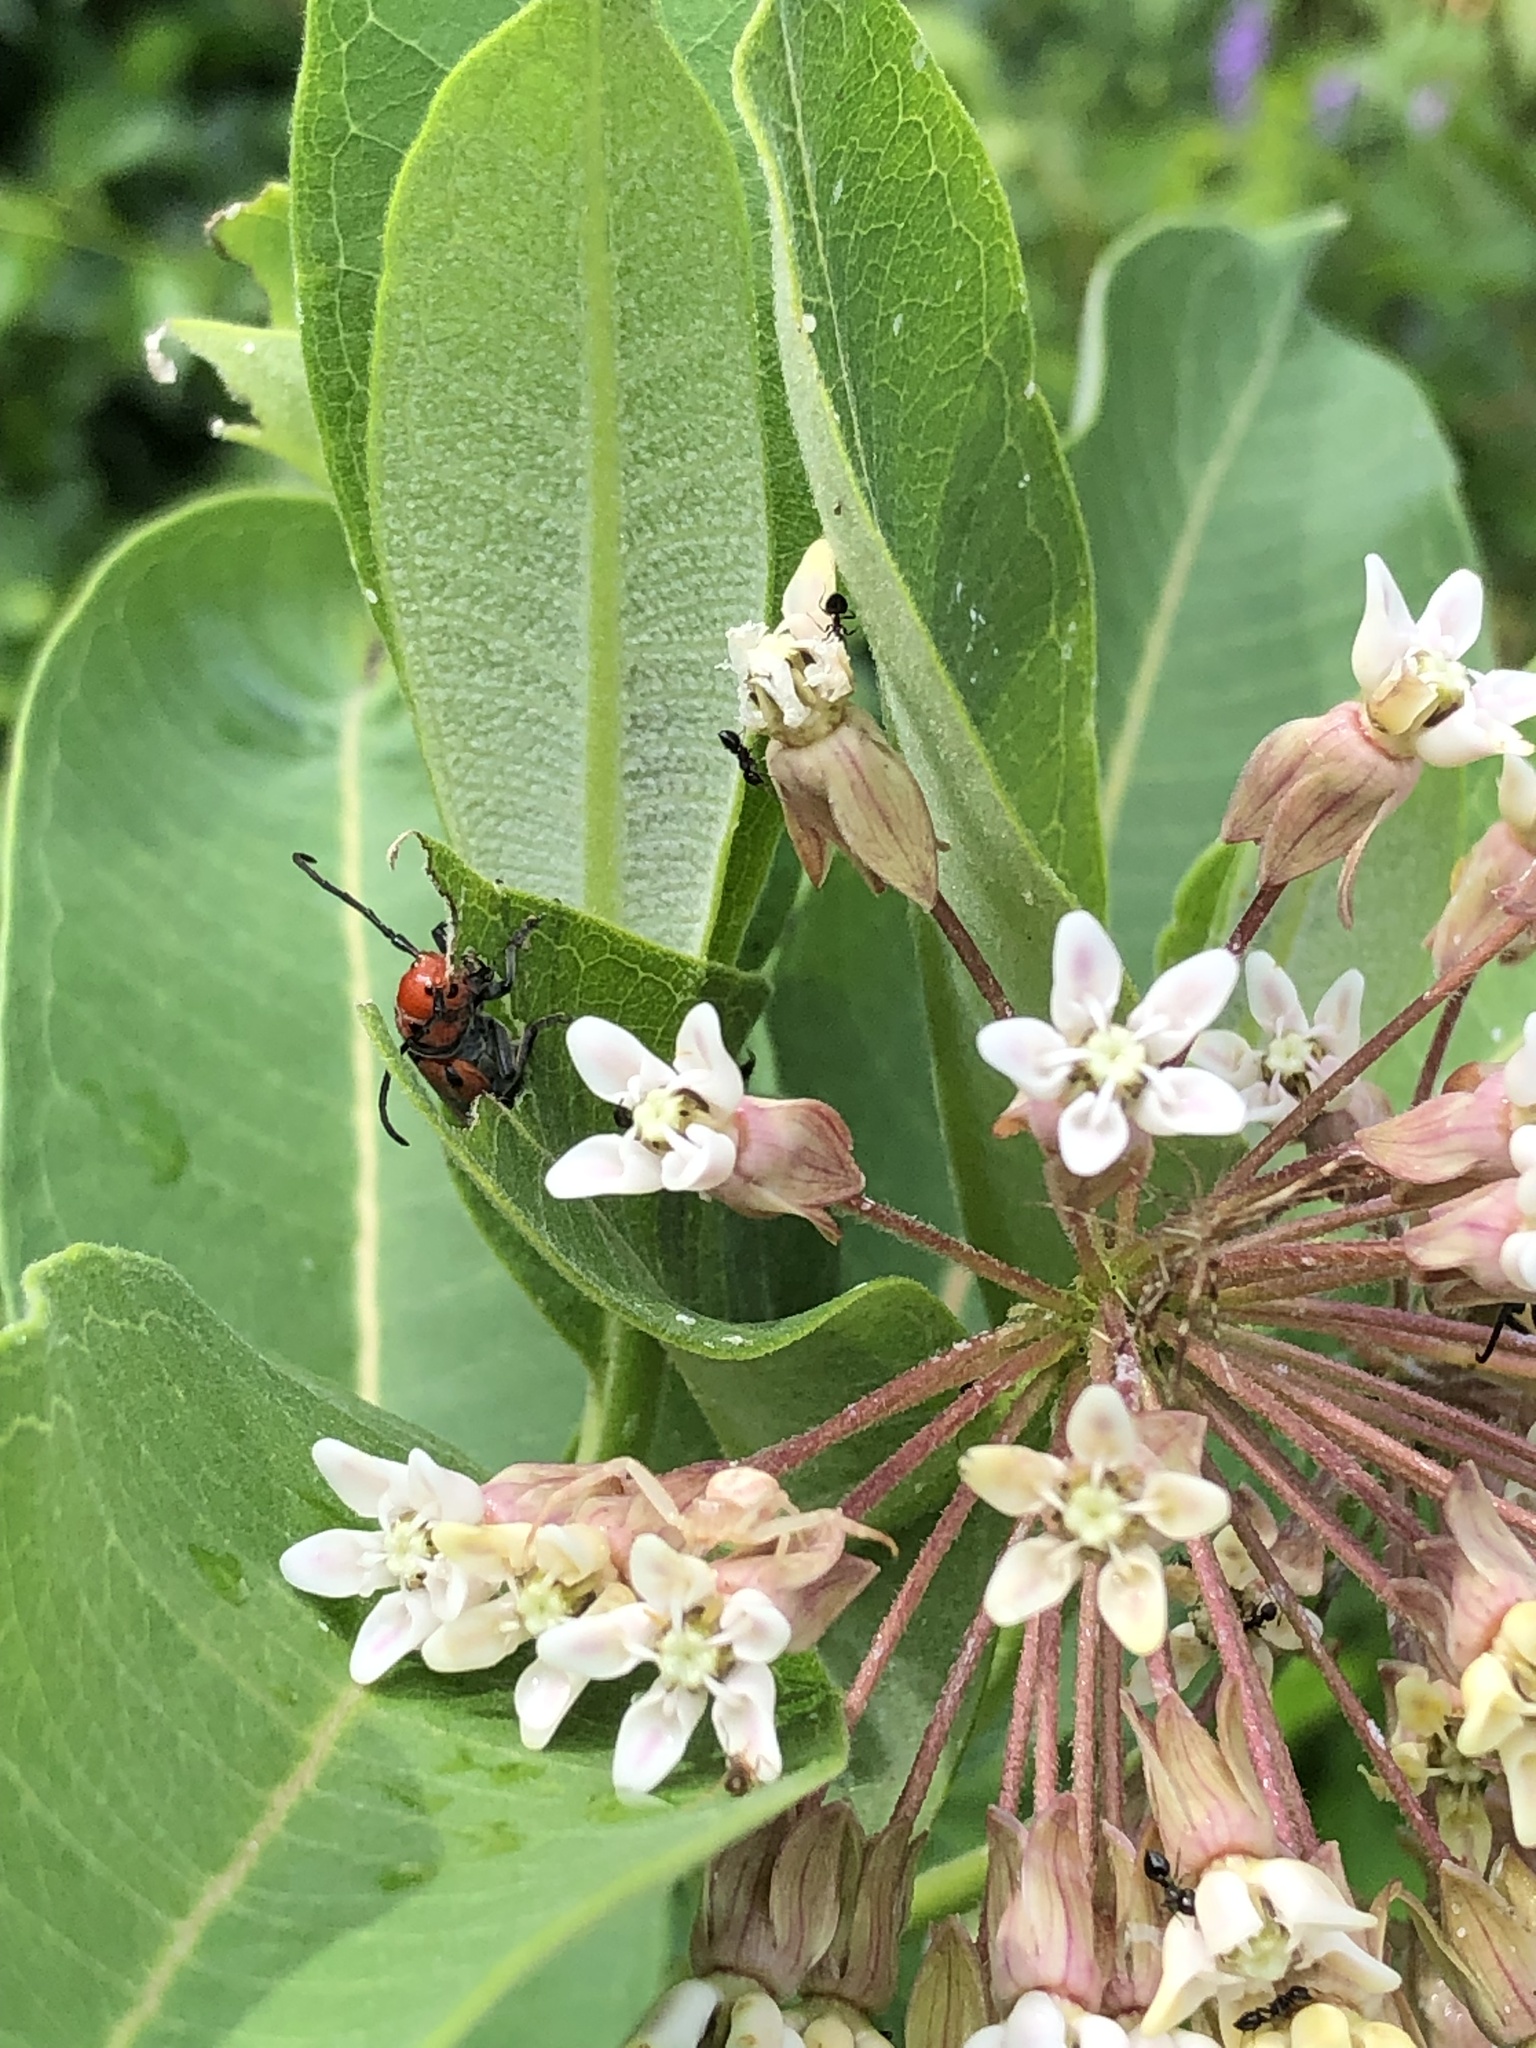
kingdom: Animalia
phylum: Arthropoda
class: Insecta
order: Coleoptera
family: Cerambycidae
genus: Tetraopes
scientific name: Tetraopes tetrophthalmus
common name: Red milkweed beetle
